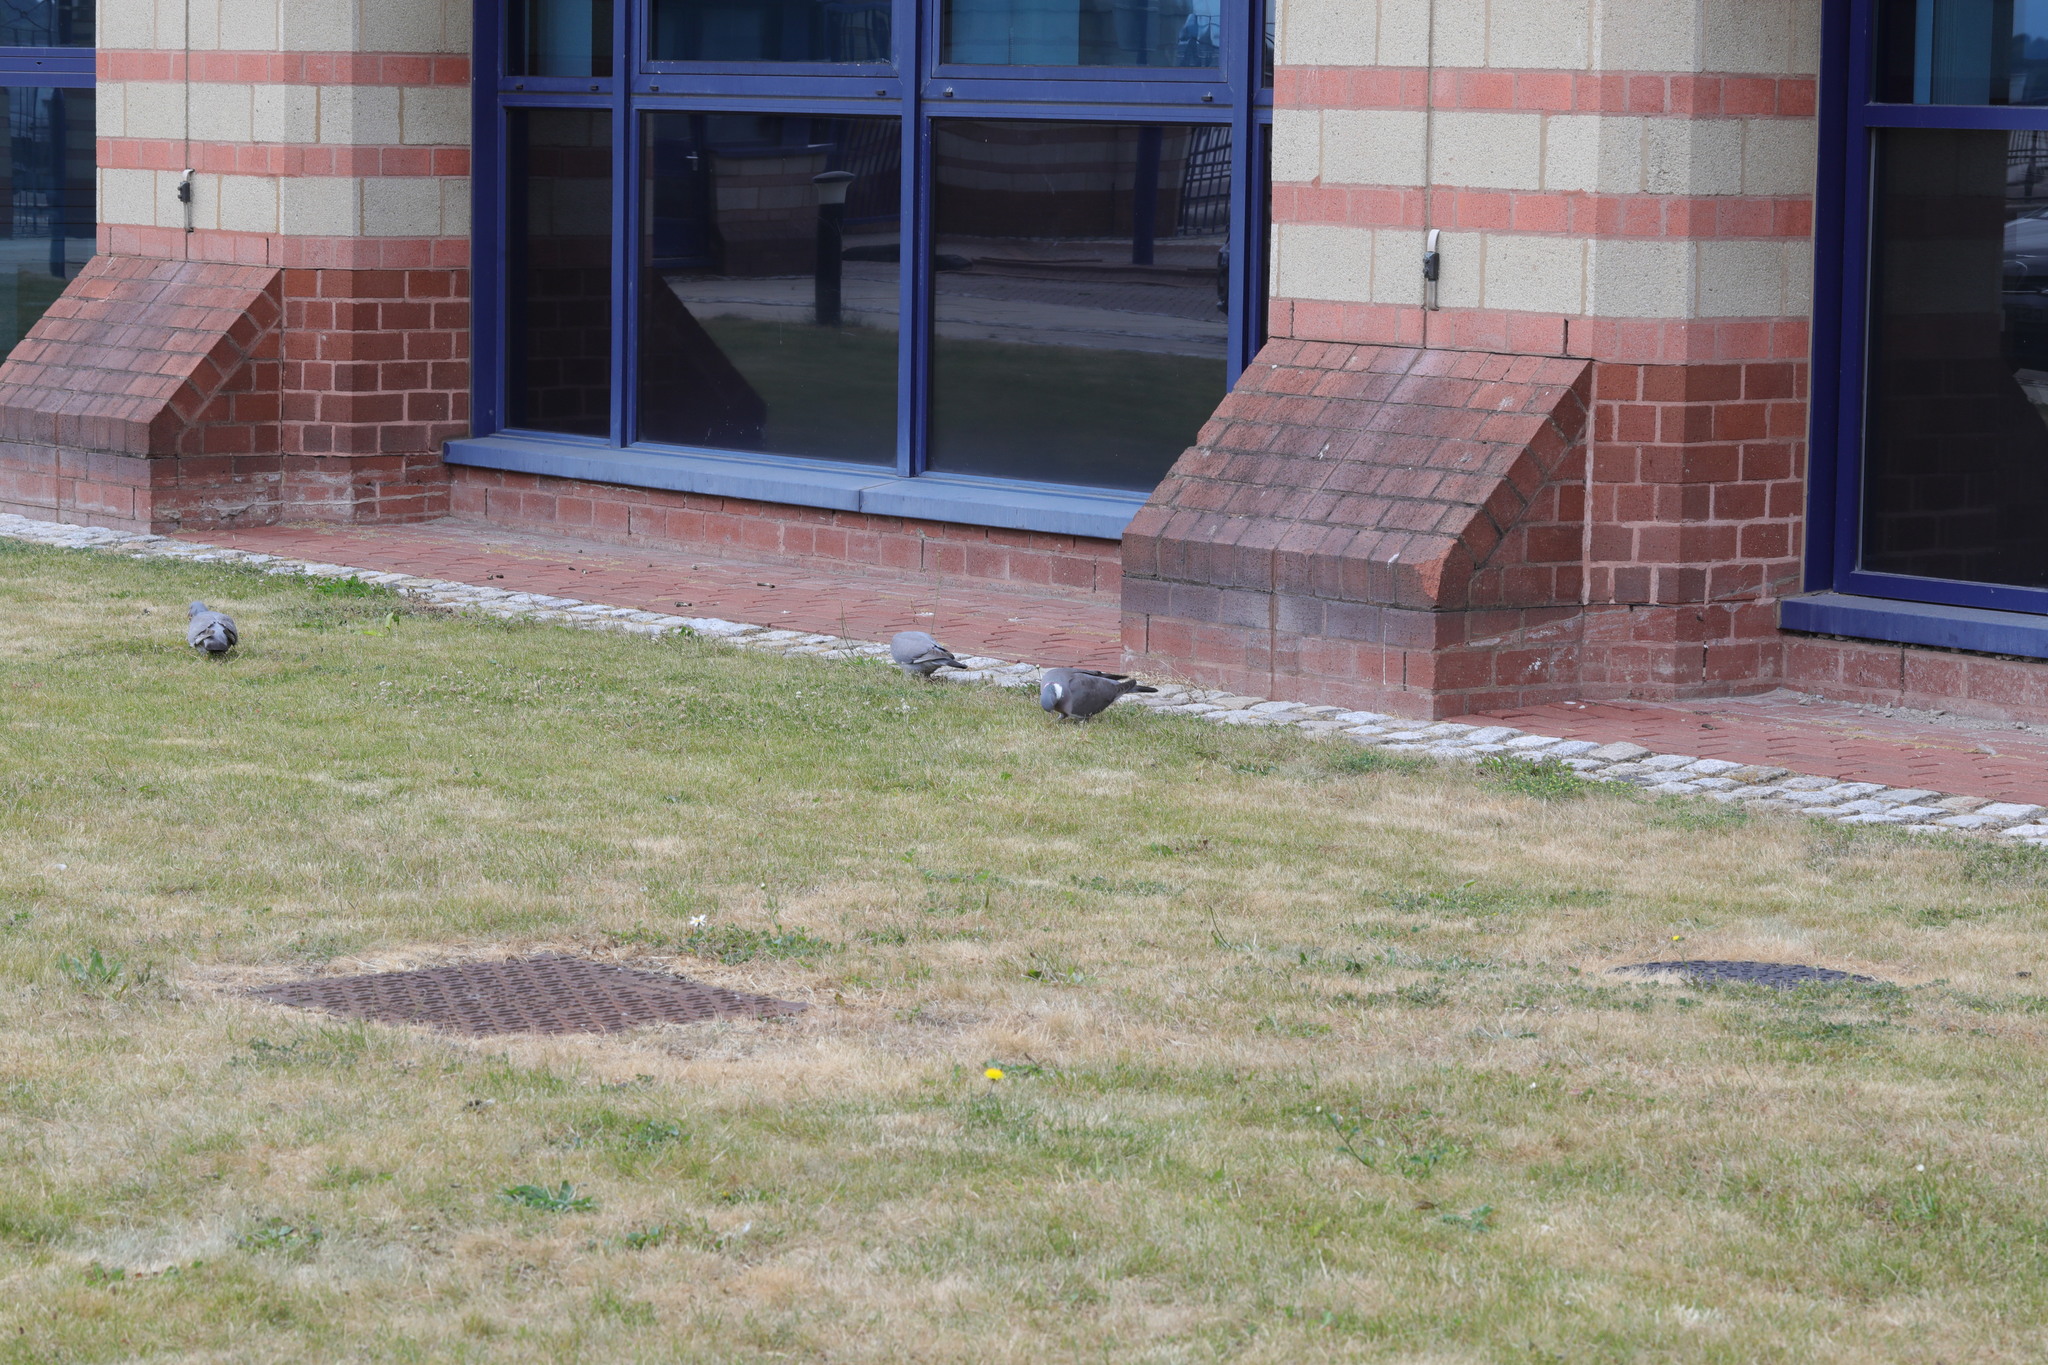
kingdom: Animalia
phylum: Chordata
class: Aves
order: Columbiformes
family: Columbidae
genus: Columba
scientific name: Columba palumbus
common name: Common wood pigeon
